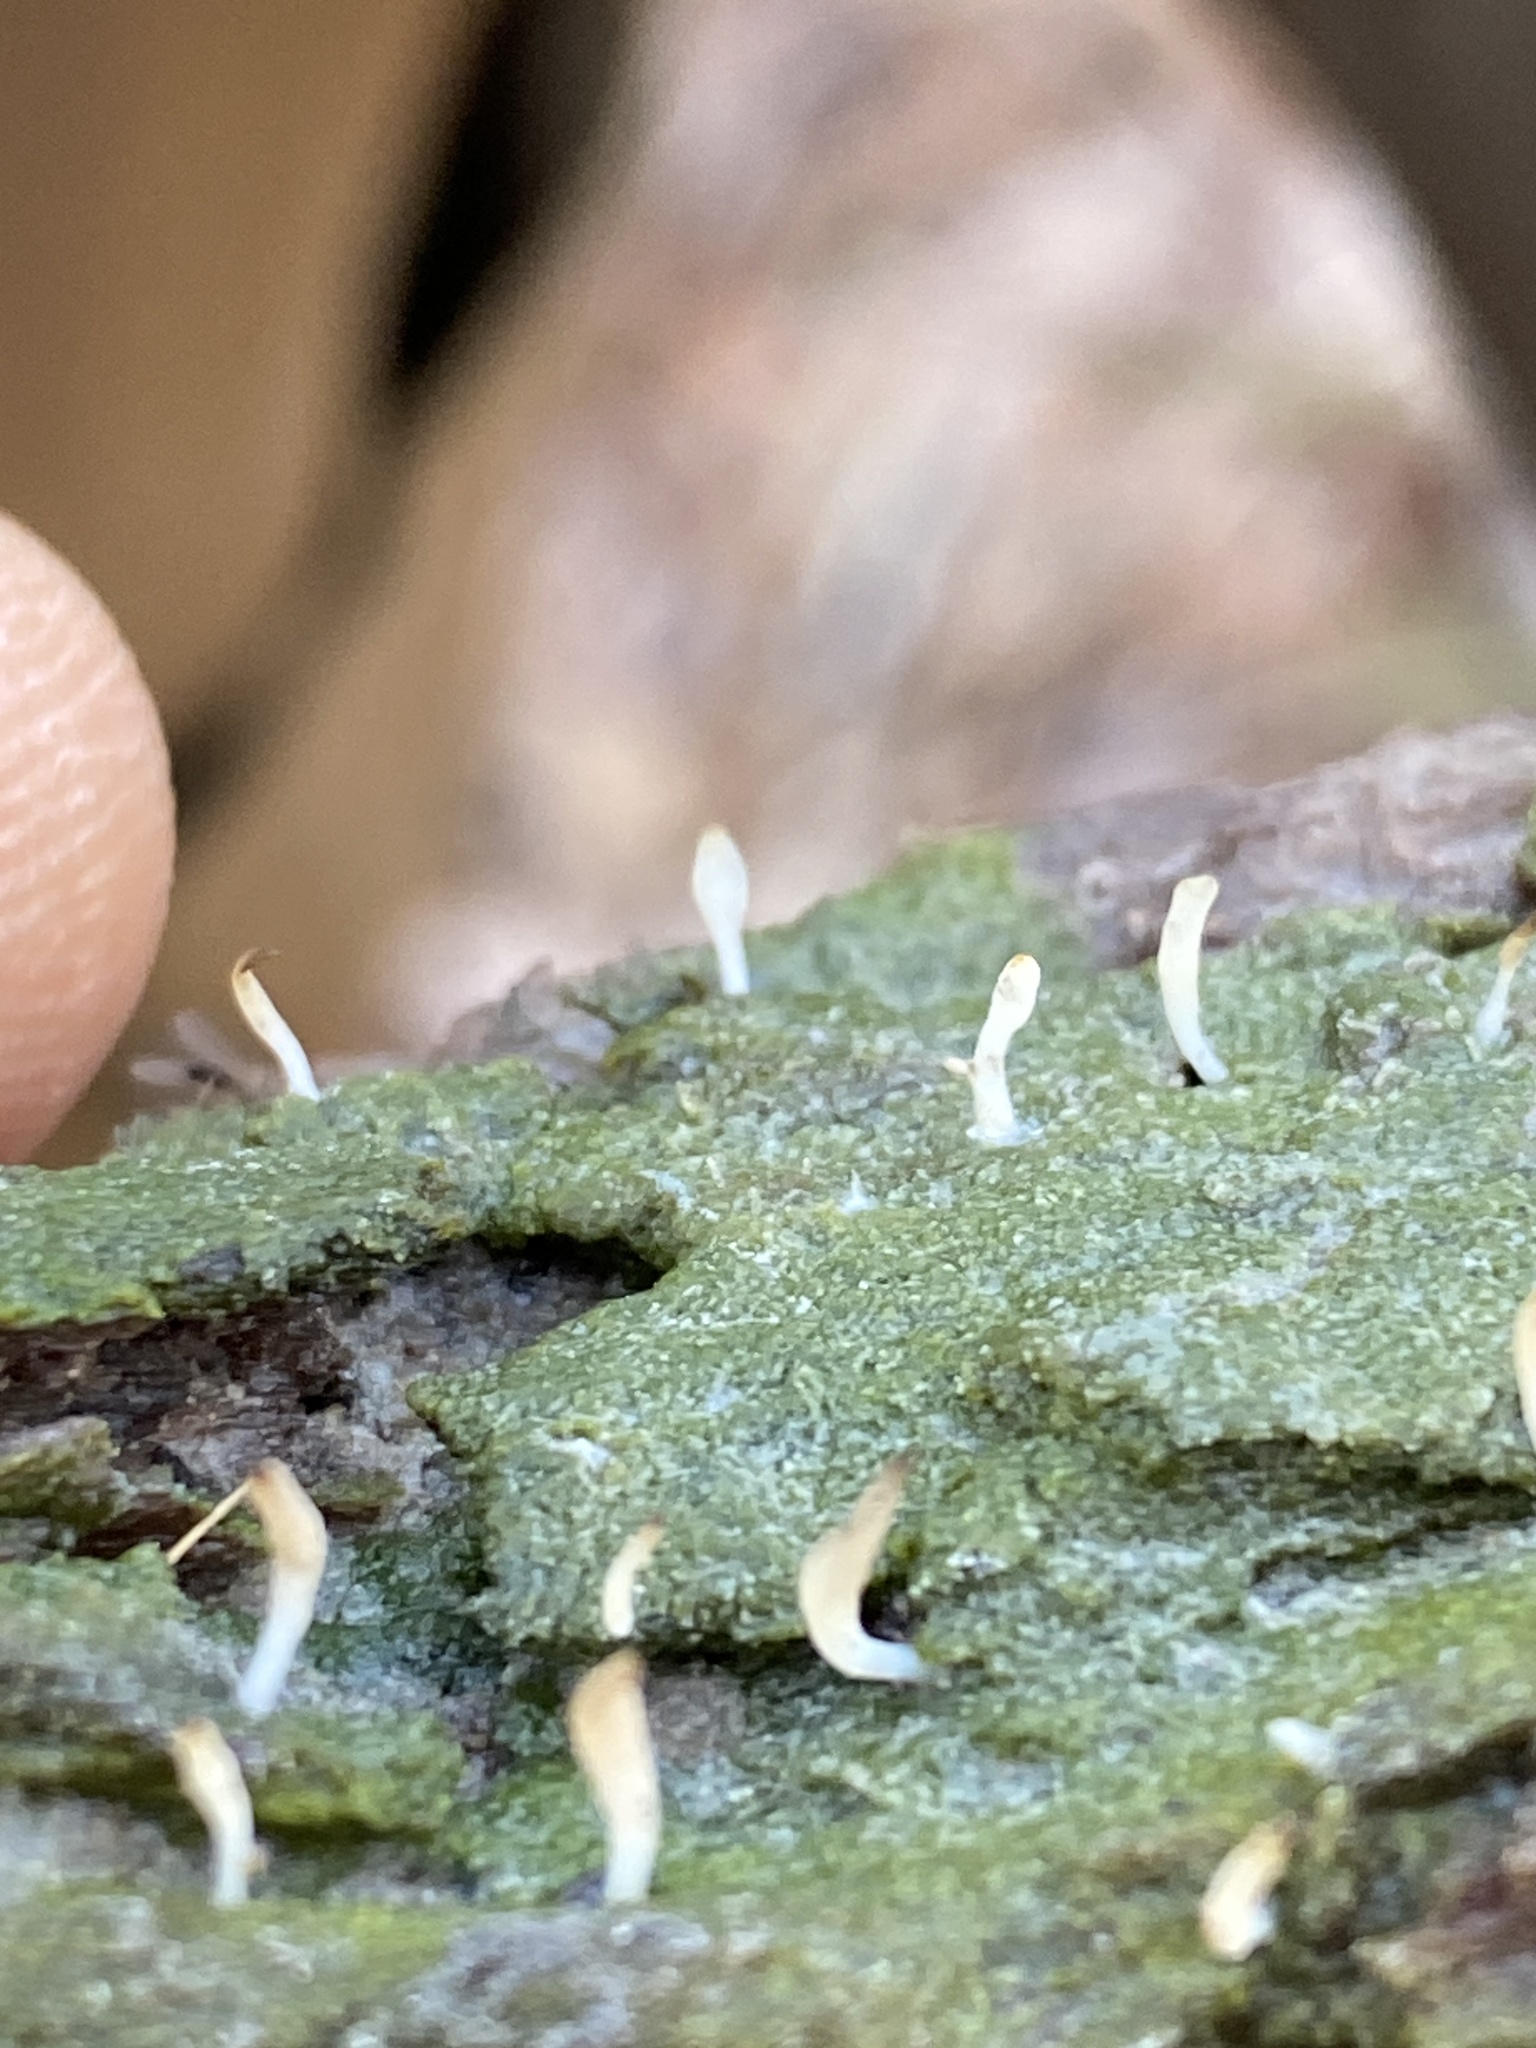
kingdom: Fungi
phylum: Basidiomycota
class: Agaricomycetes
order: Cantharellales
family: Hydnaceae
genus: Multiclavula
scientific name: Multiclavula mucida
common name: White green-algae coral
